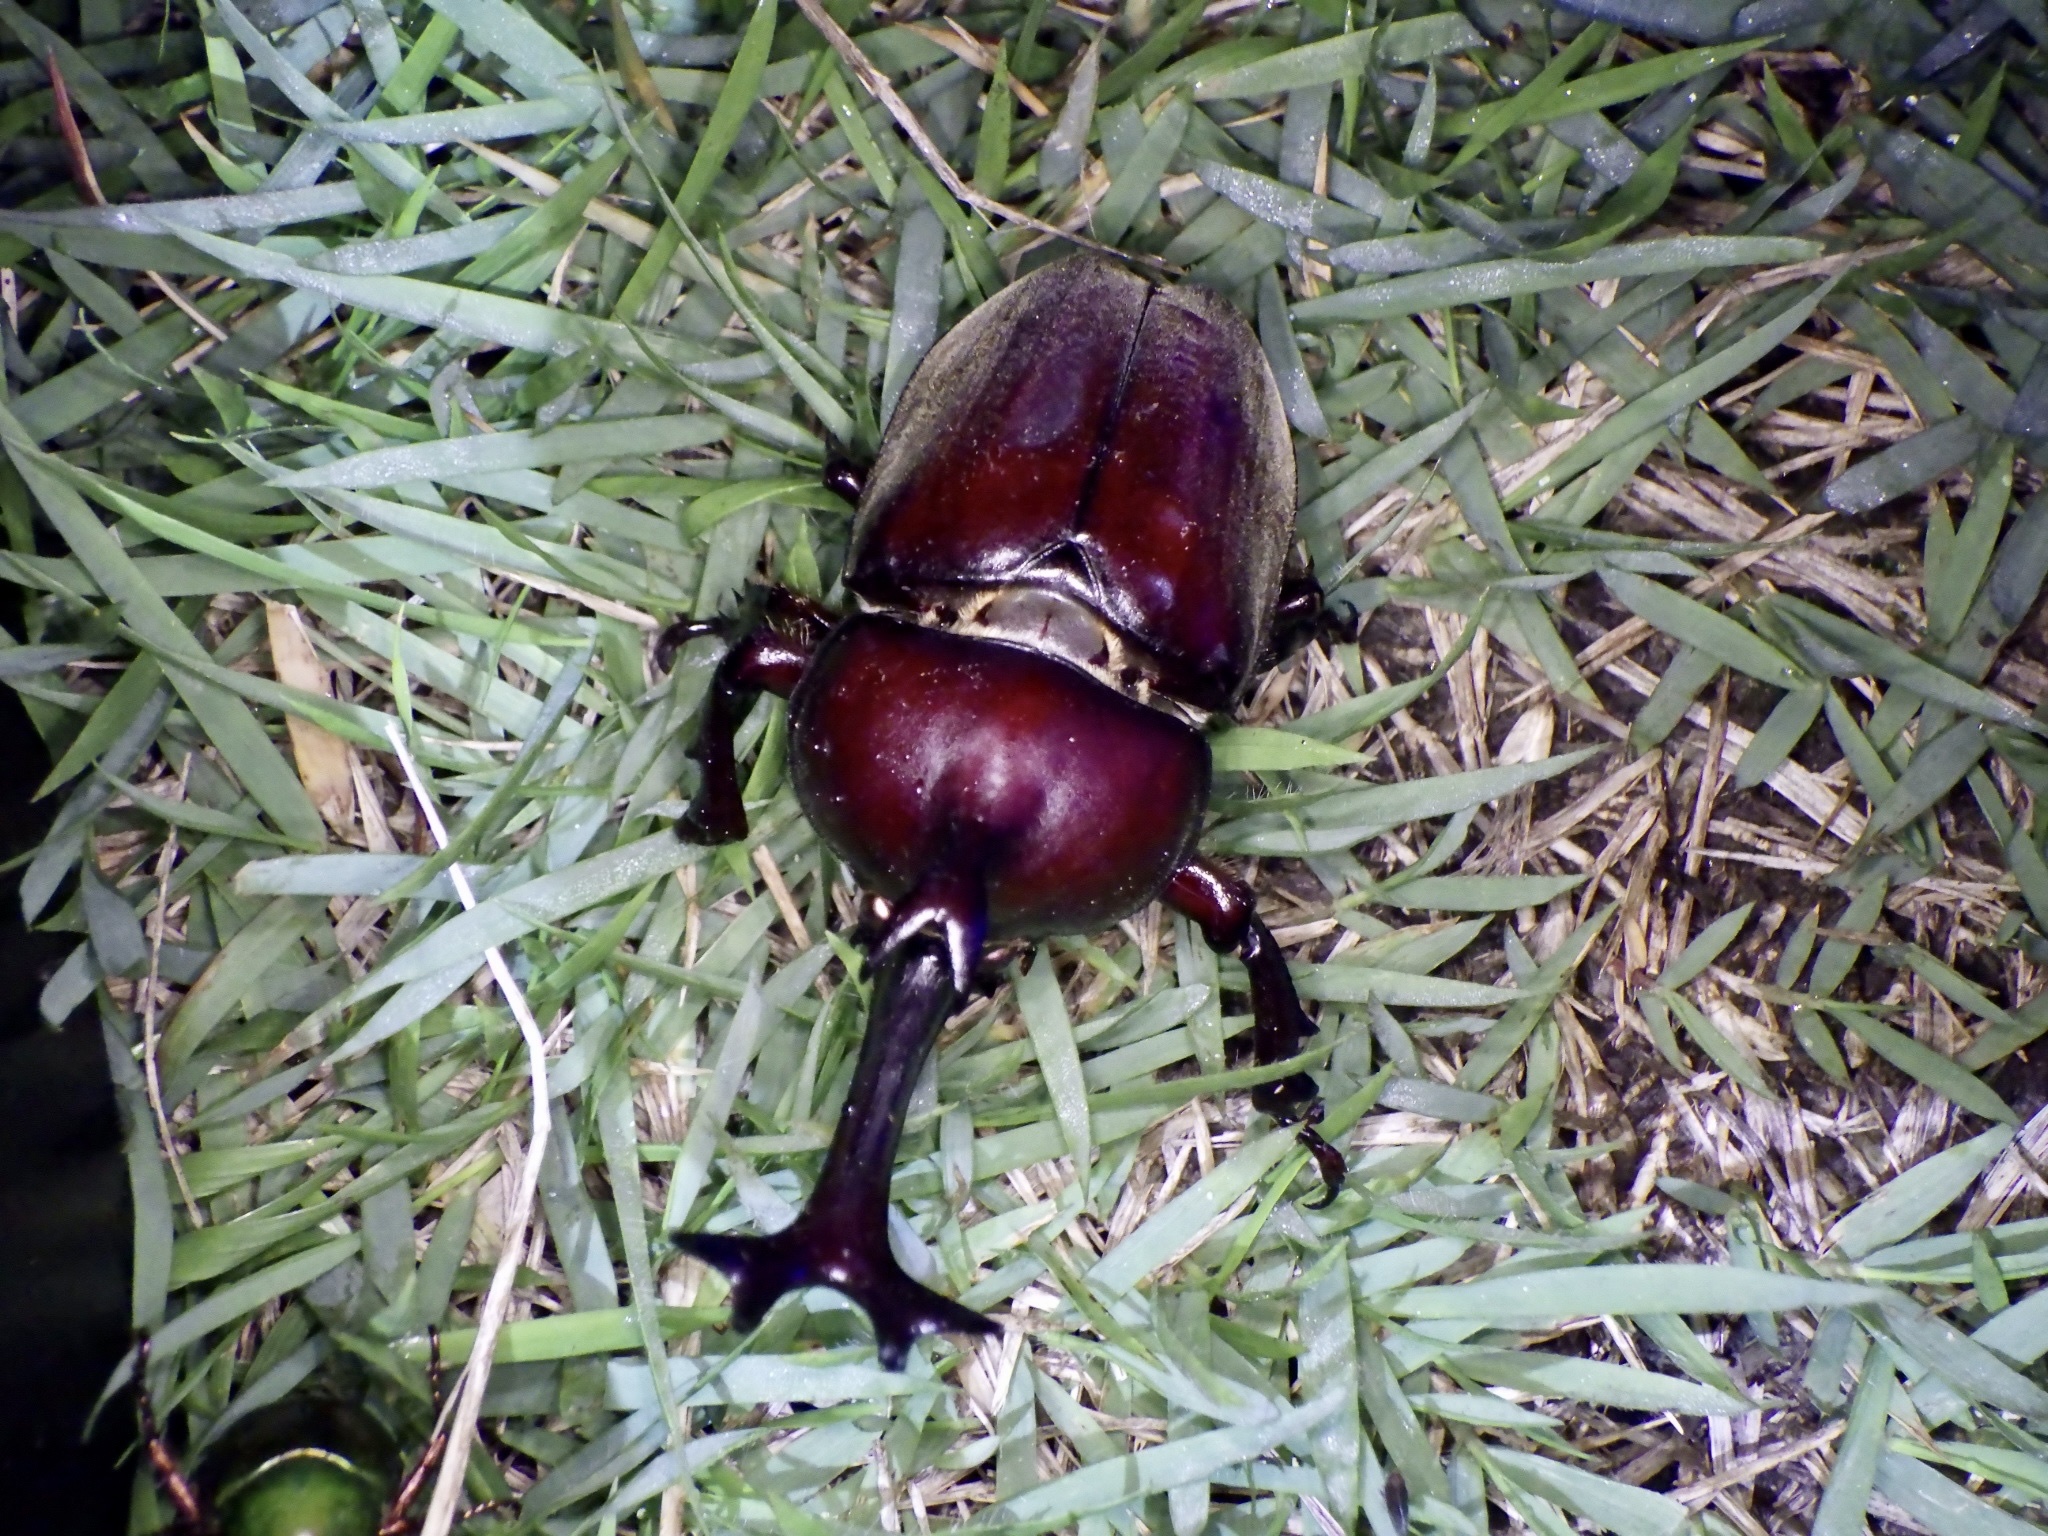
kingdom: Animalia
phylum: Arthropoda
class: Insecta
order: Coleoptera
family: Scarabaeidae
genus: Trypoxylus
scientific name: Trypoxylus dichotomus
